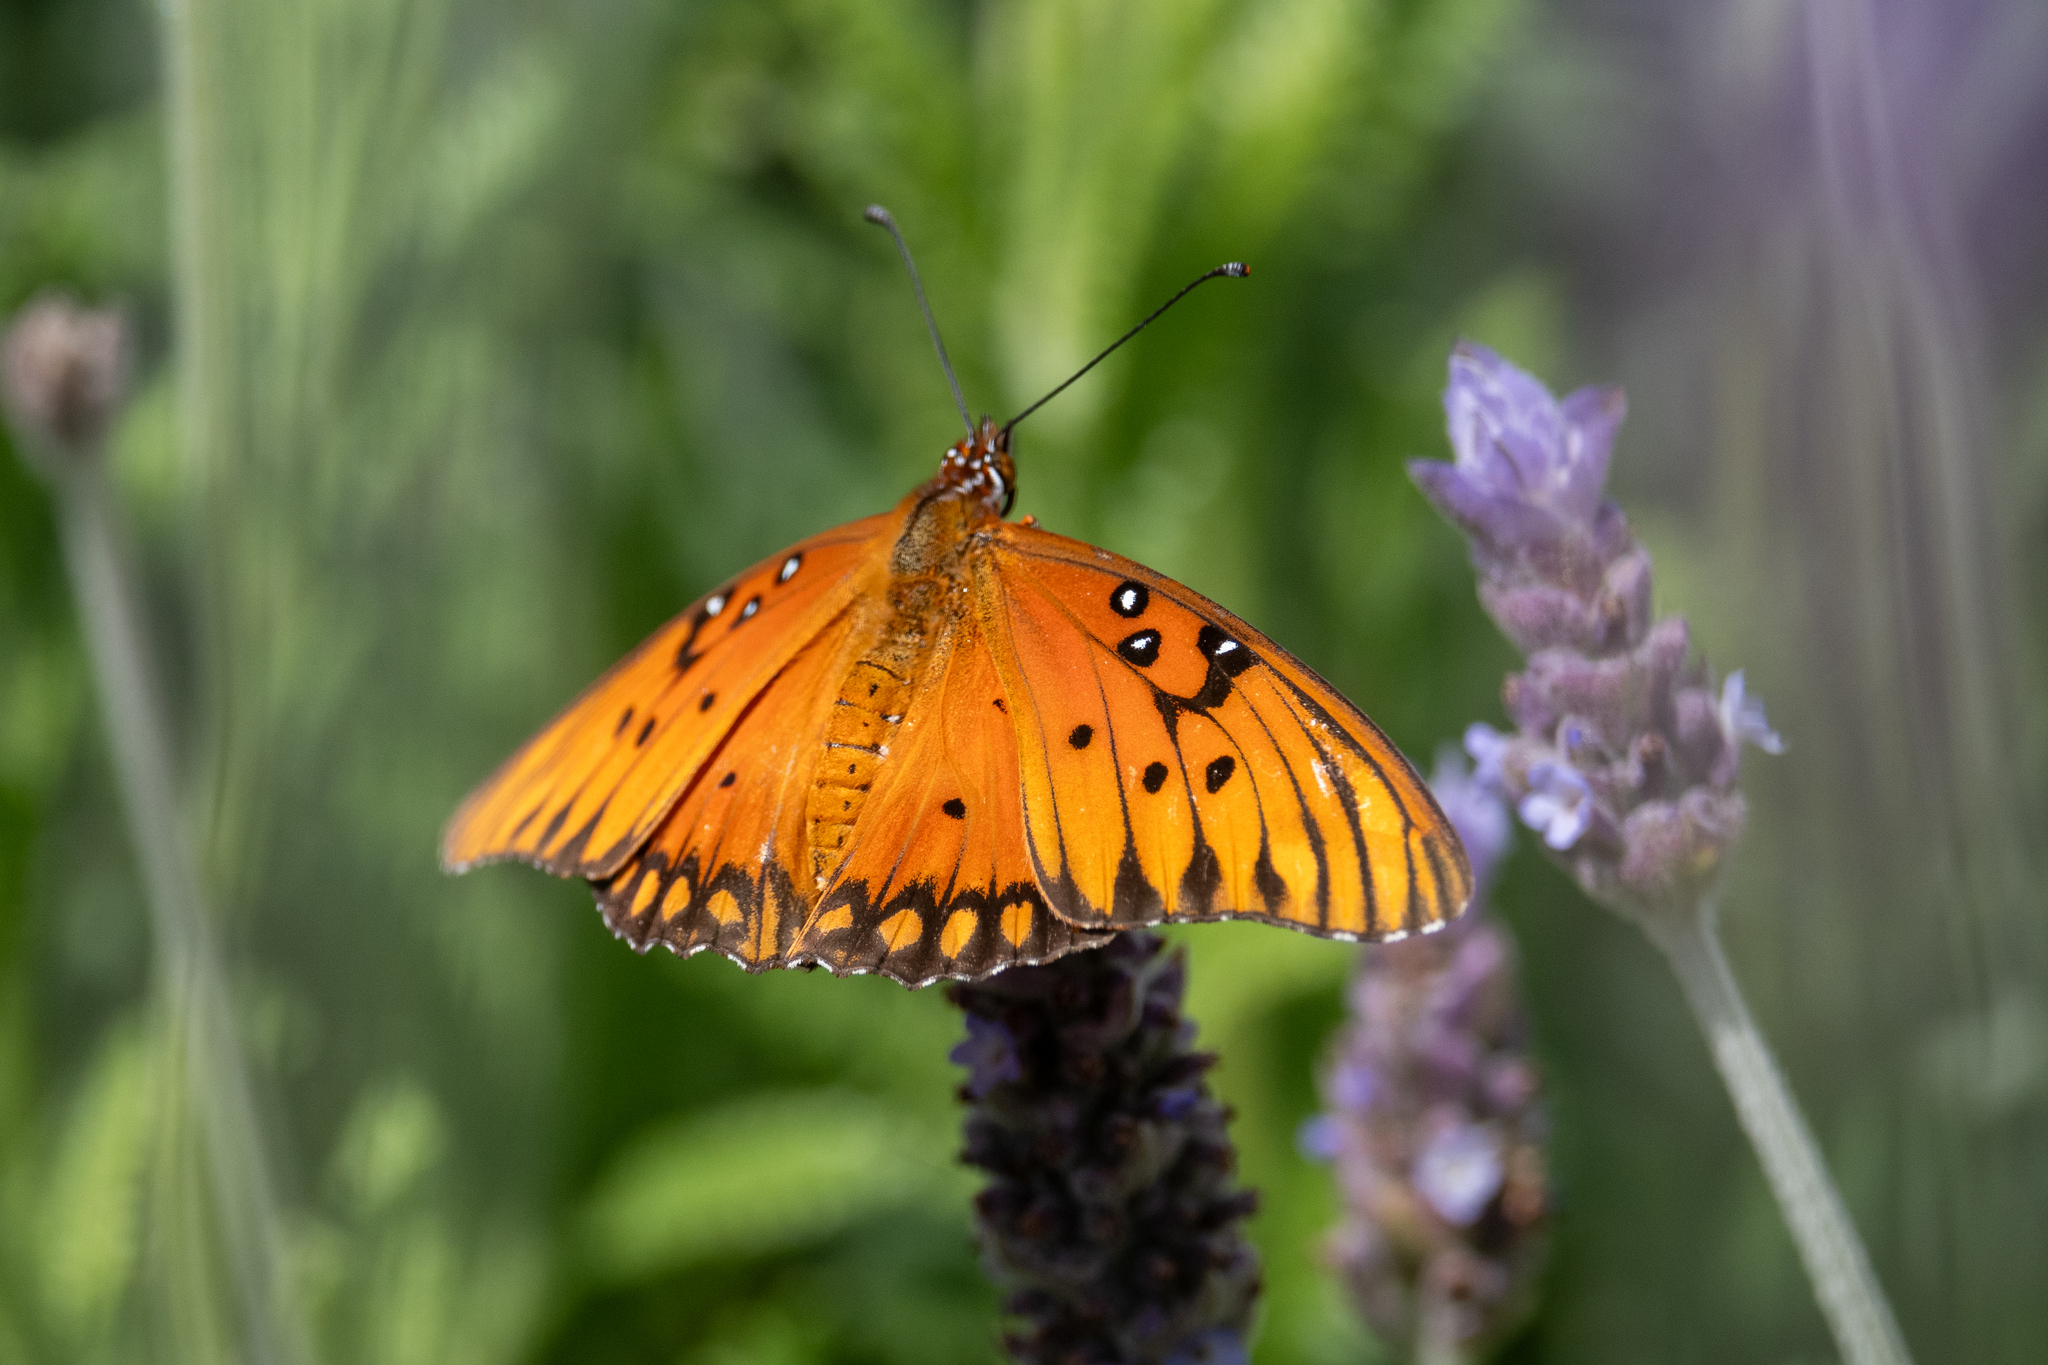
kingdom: Animalia
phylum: Arthropoda
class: Insecta
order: Lepidoptera
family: Nymphalidae
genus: Dione
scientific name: Dione vanillae
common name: Gulf fritillary
